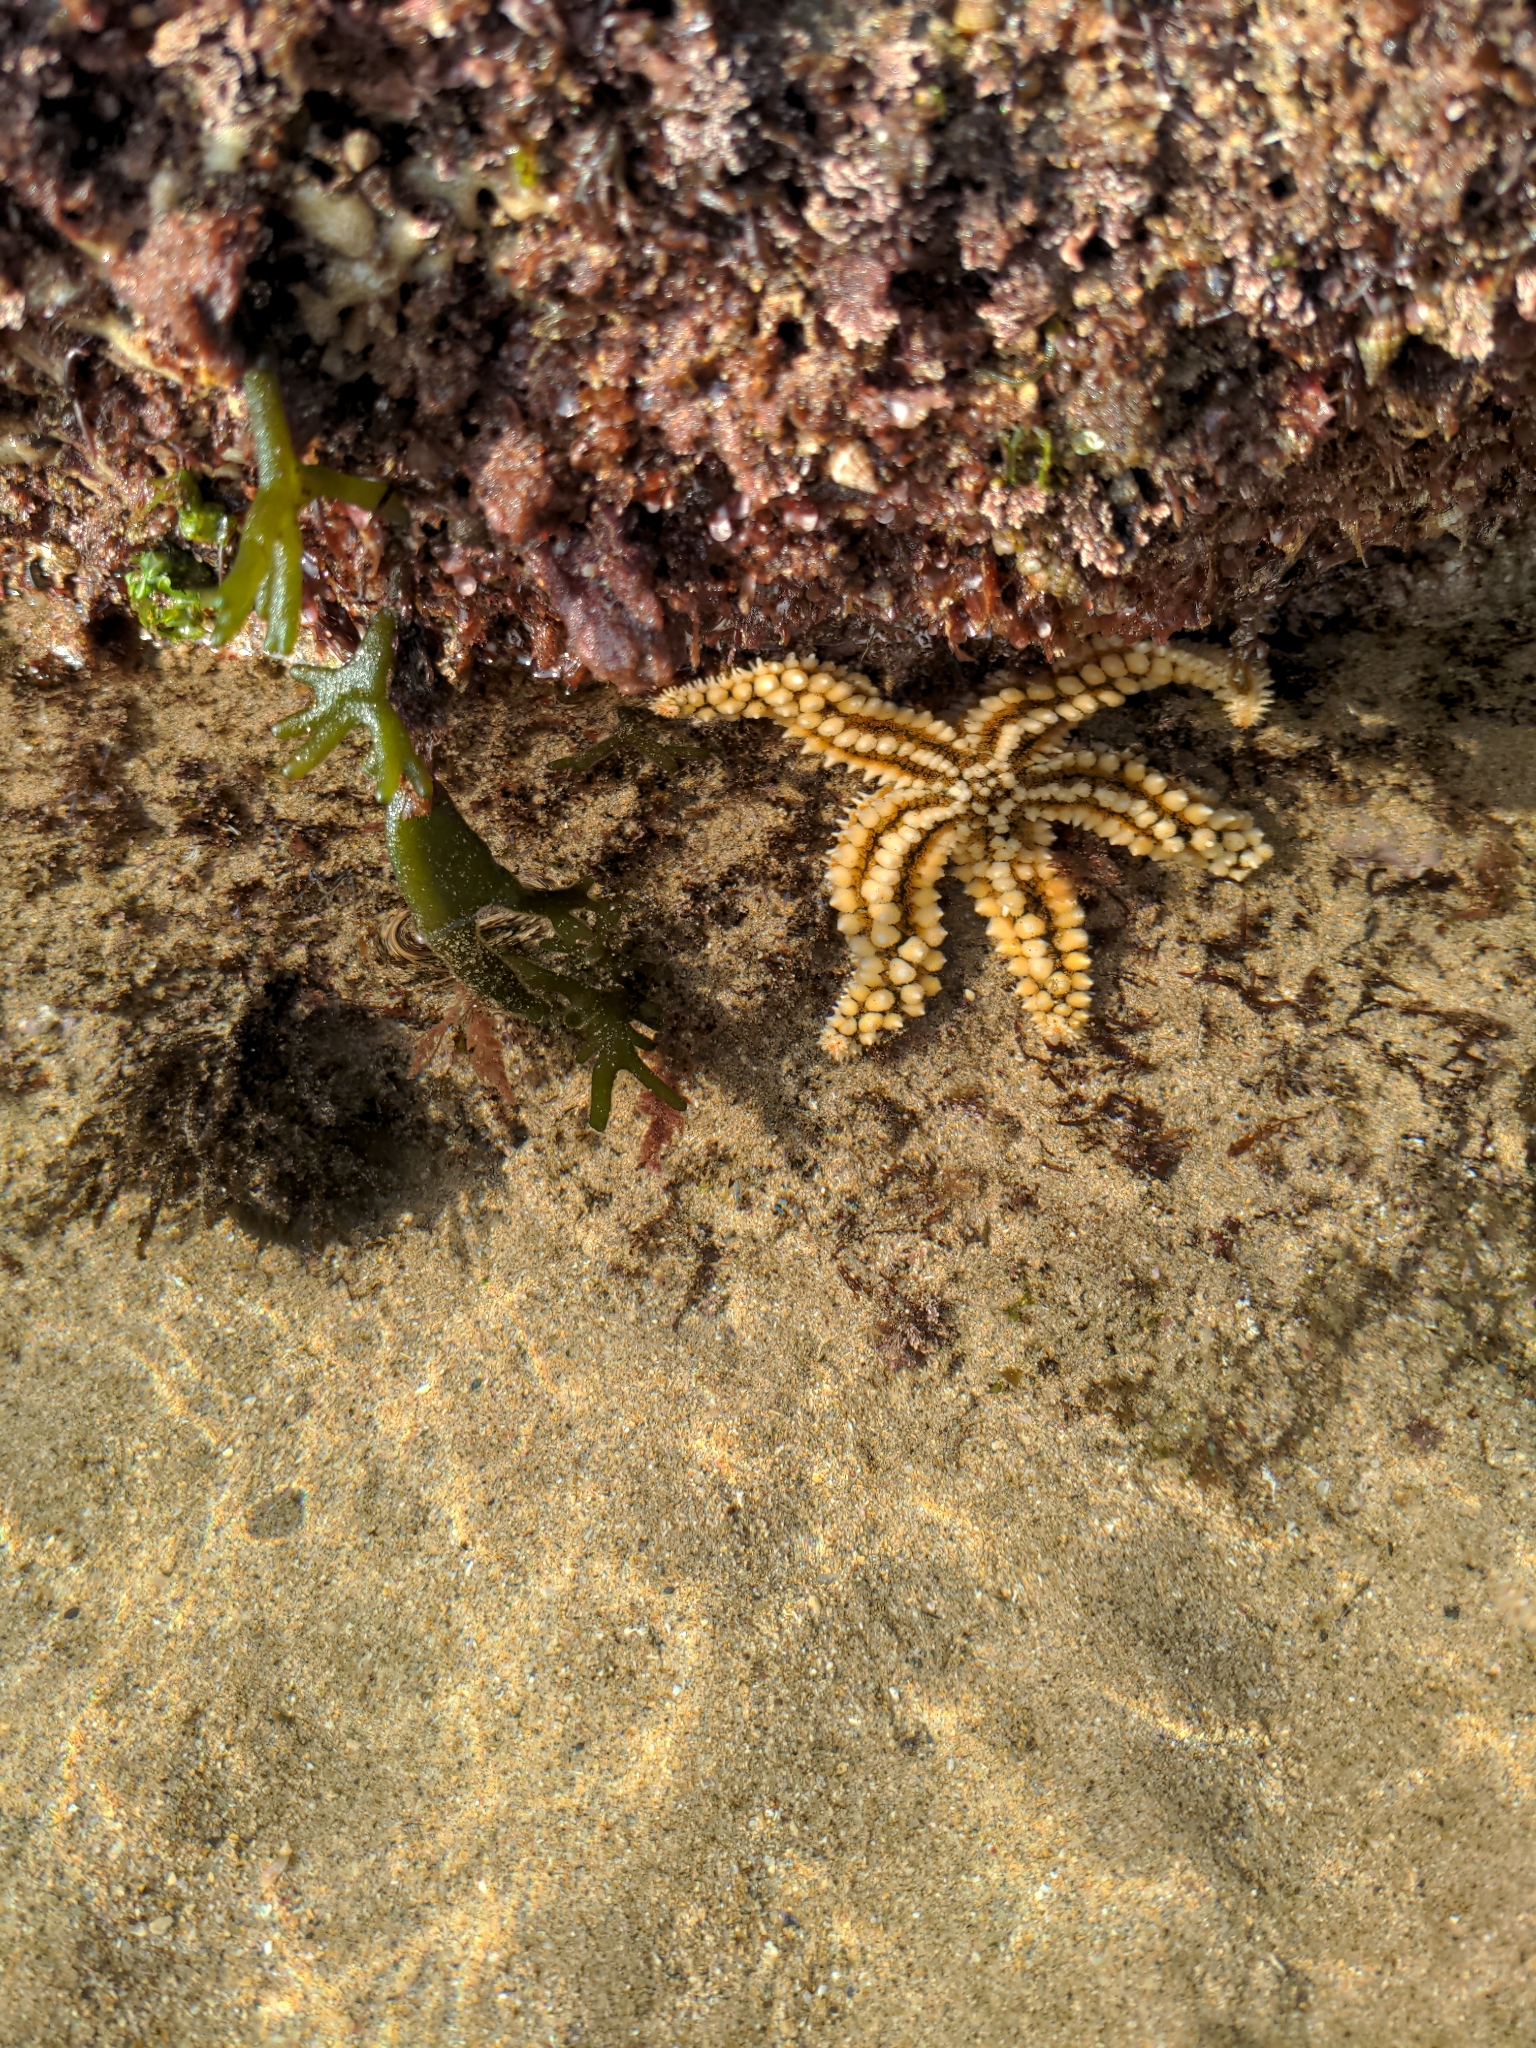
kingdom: Animalia
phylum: Echinodermata
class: Asteroidea
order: Forcipulatida
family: Asteriidae
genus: Marthasterias
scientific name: Marthasterias glacialis
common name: Spiny starfish
